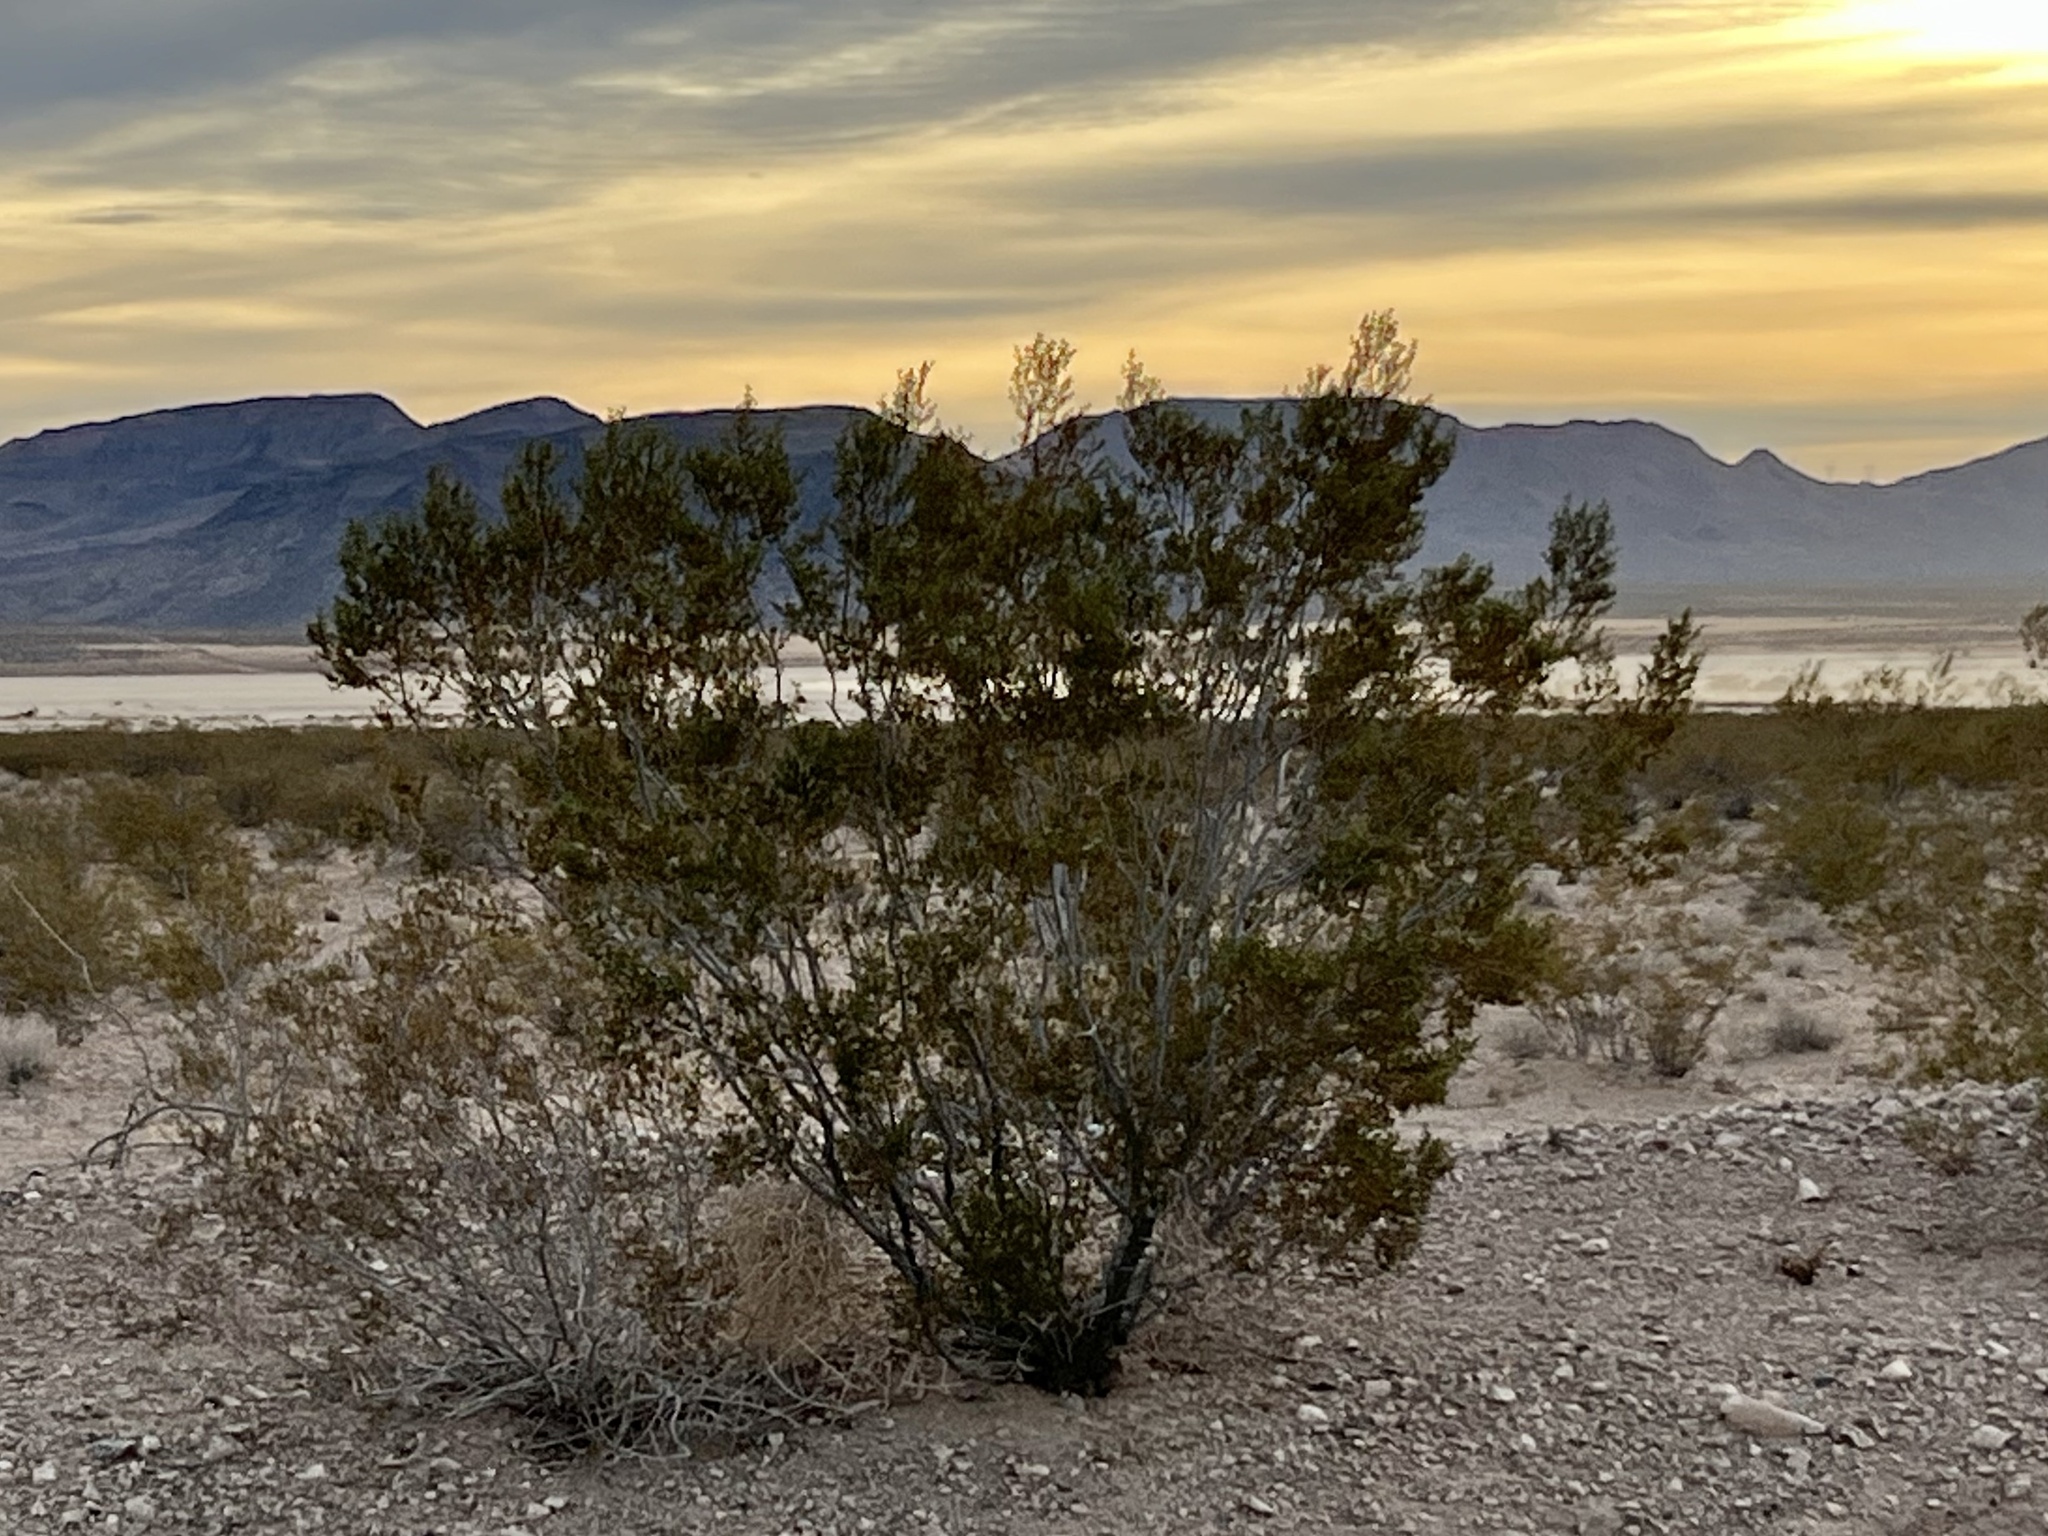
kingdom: Plantae
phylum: Tracheophyta
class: Magnoliopsida
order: Zygophyllales
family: Zygophyllaceae
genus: Larrea
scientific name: Larrea tridentata
